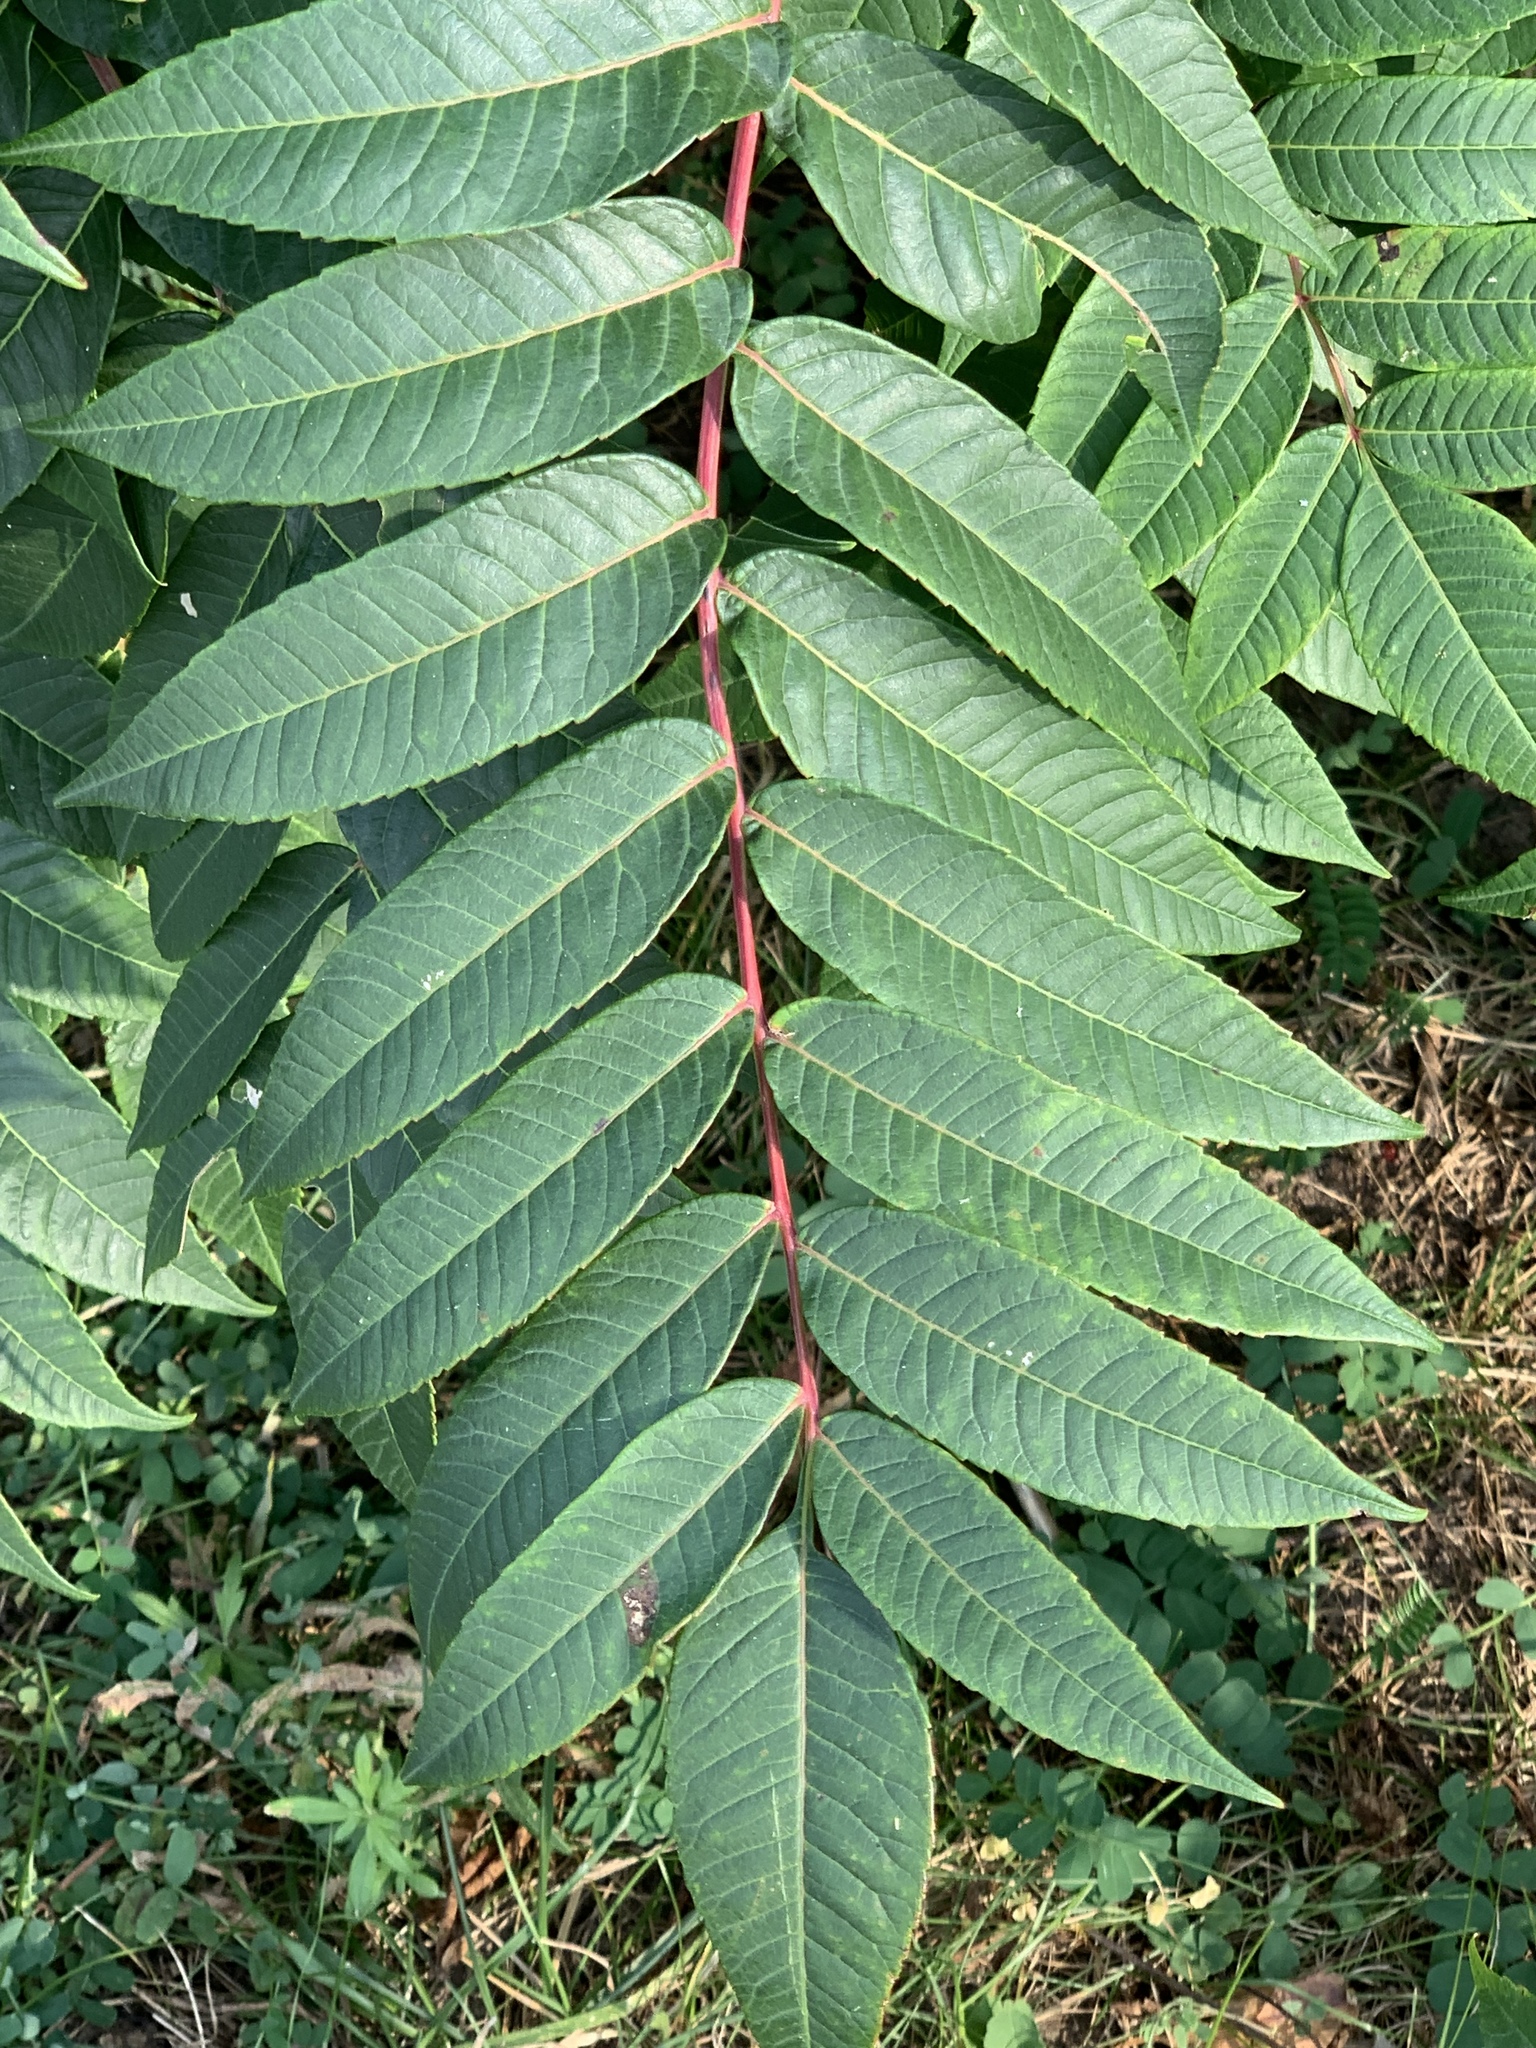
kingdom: Plantae
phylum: Tracheophyta
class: Magnoliopsida
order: Sapindales
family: Anacardiaceae
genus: Rhus
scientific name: Rhus glabra
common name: Scarlet sumac
